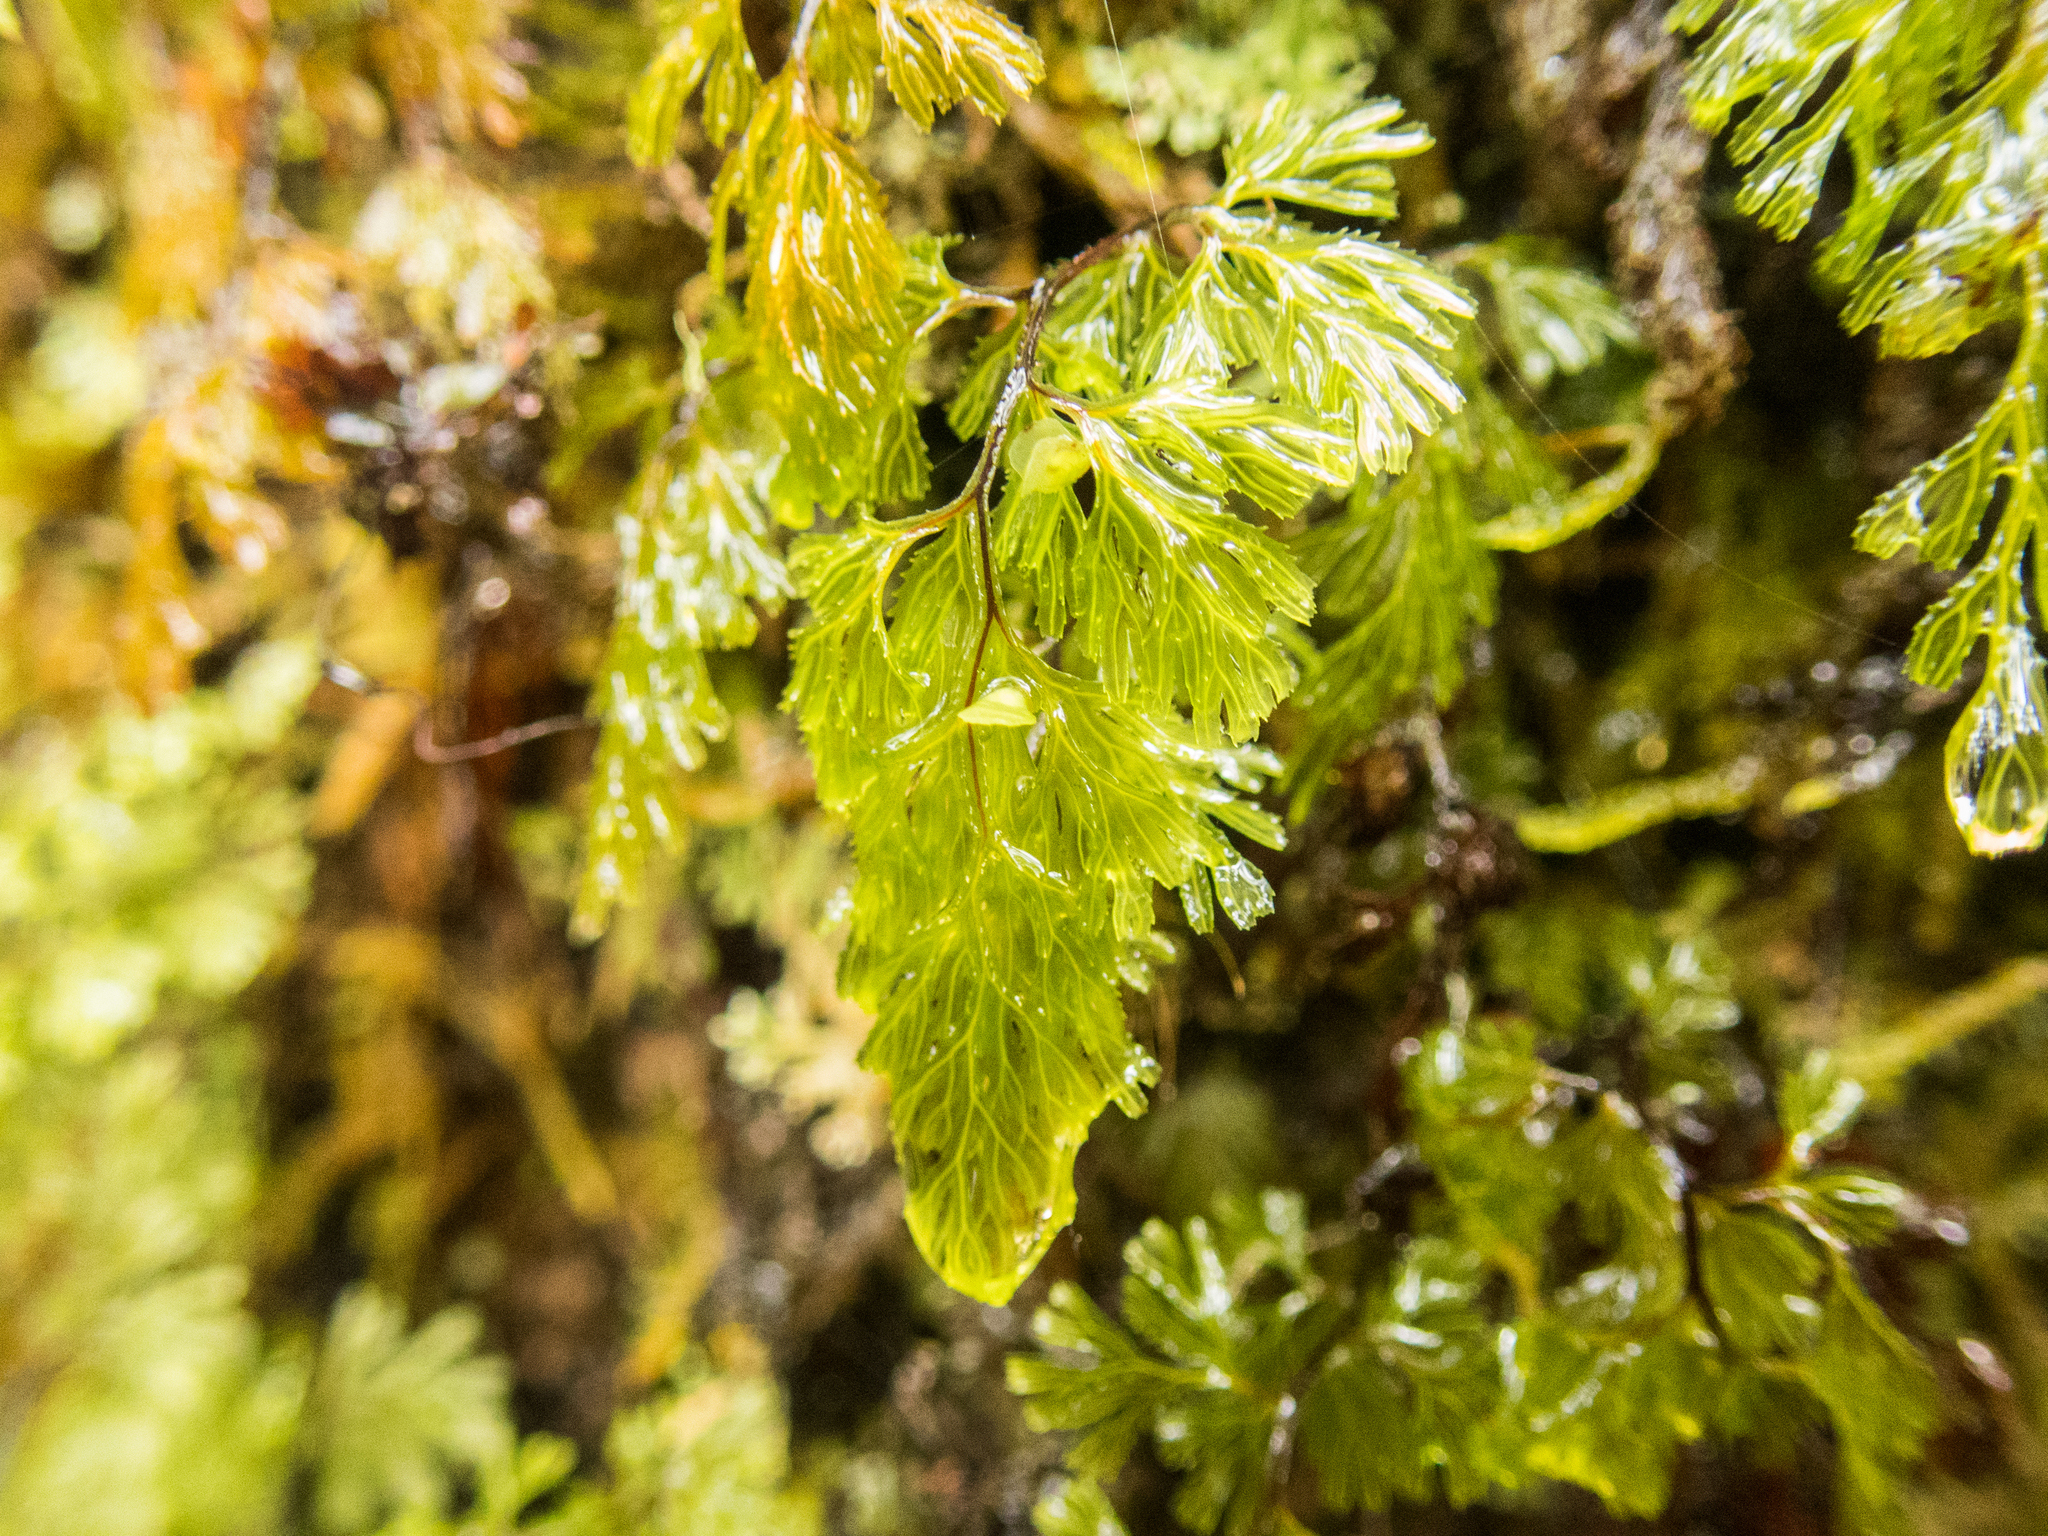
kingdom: Plantae
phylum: Tracheophyta
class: Polypodiopsida
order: Hymenophyllales
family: Hymenophyllaceae
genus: Hymenophyllum
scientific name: Hymenophyllum multifidum
